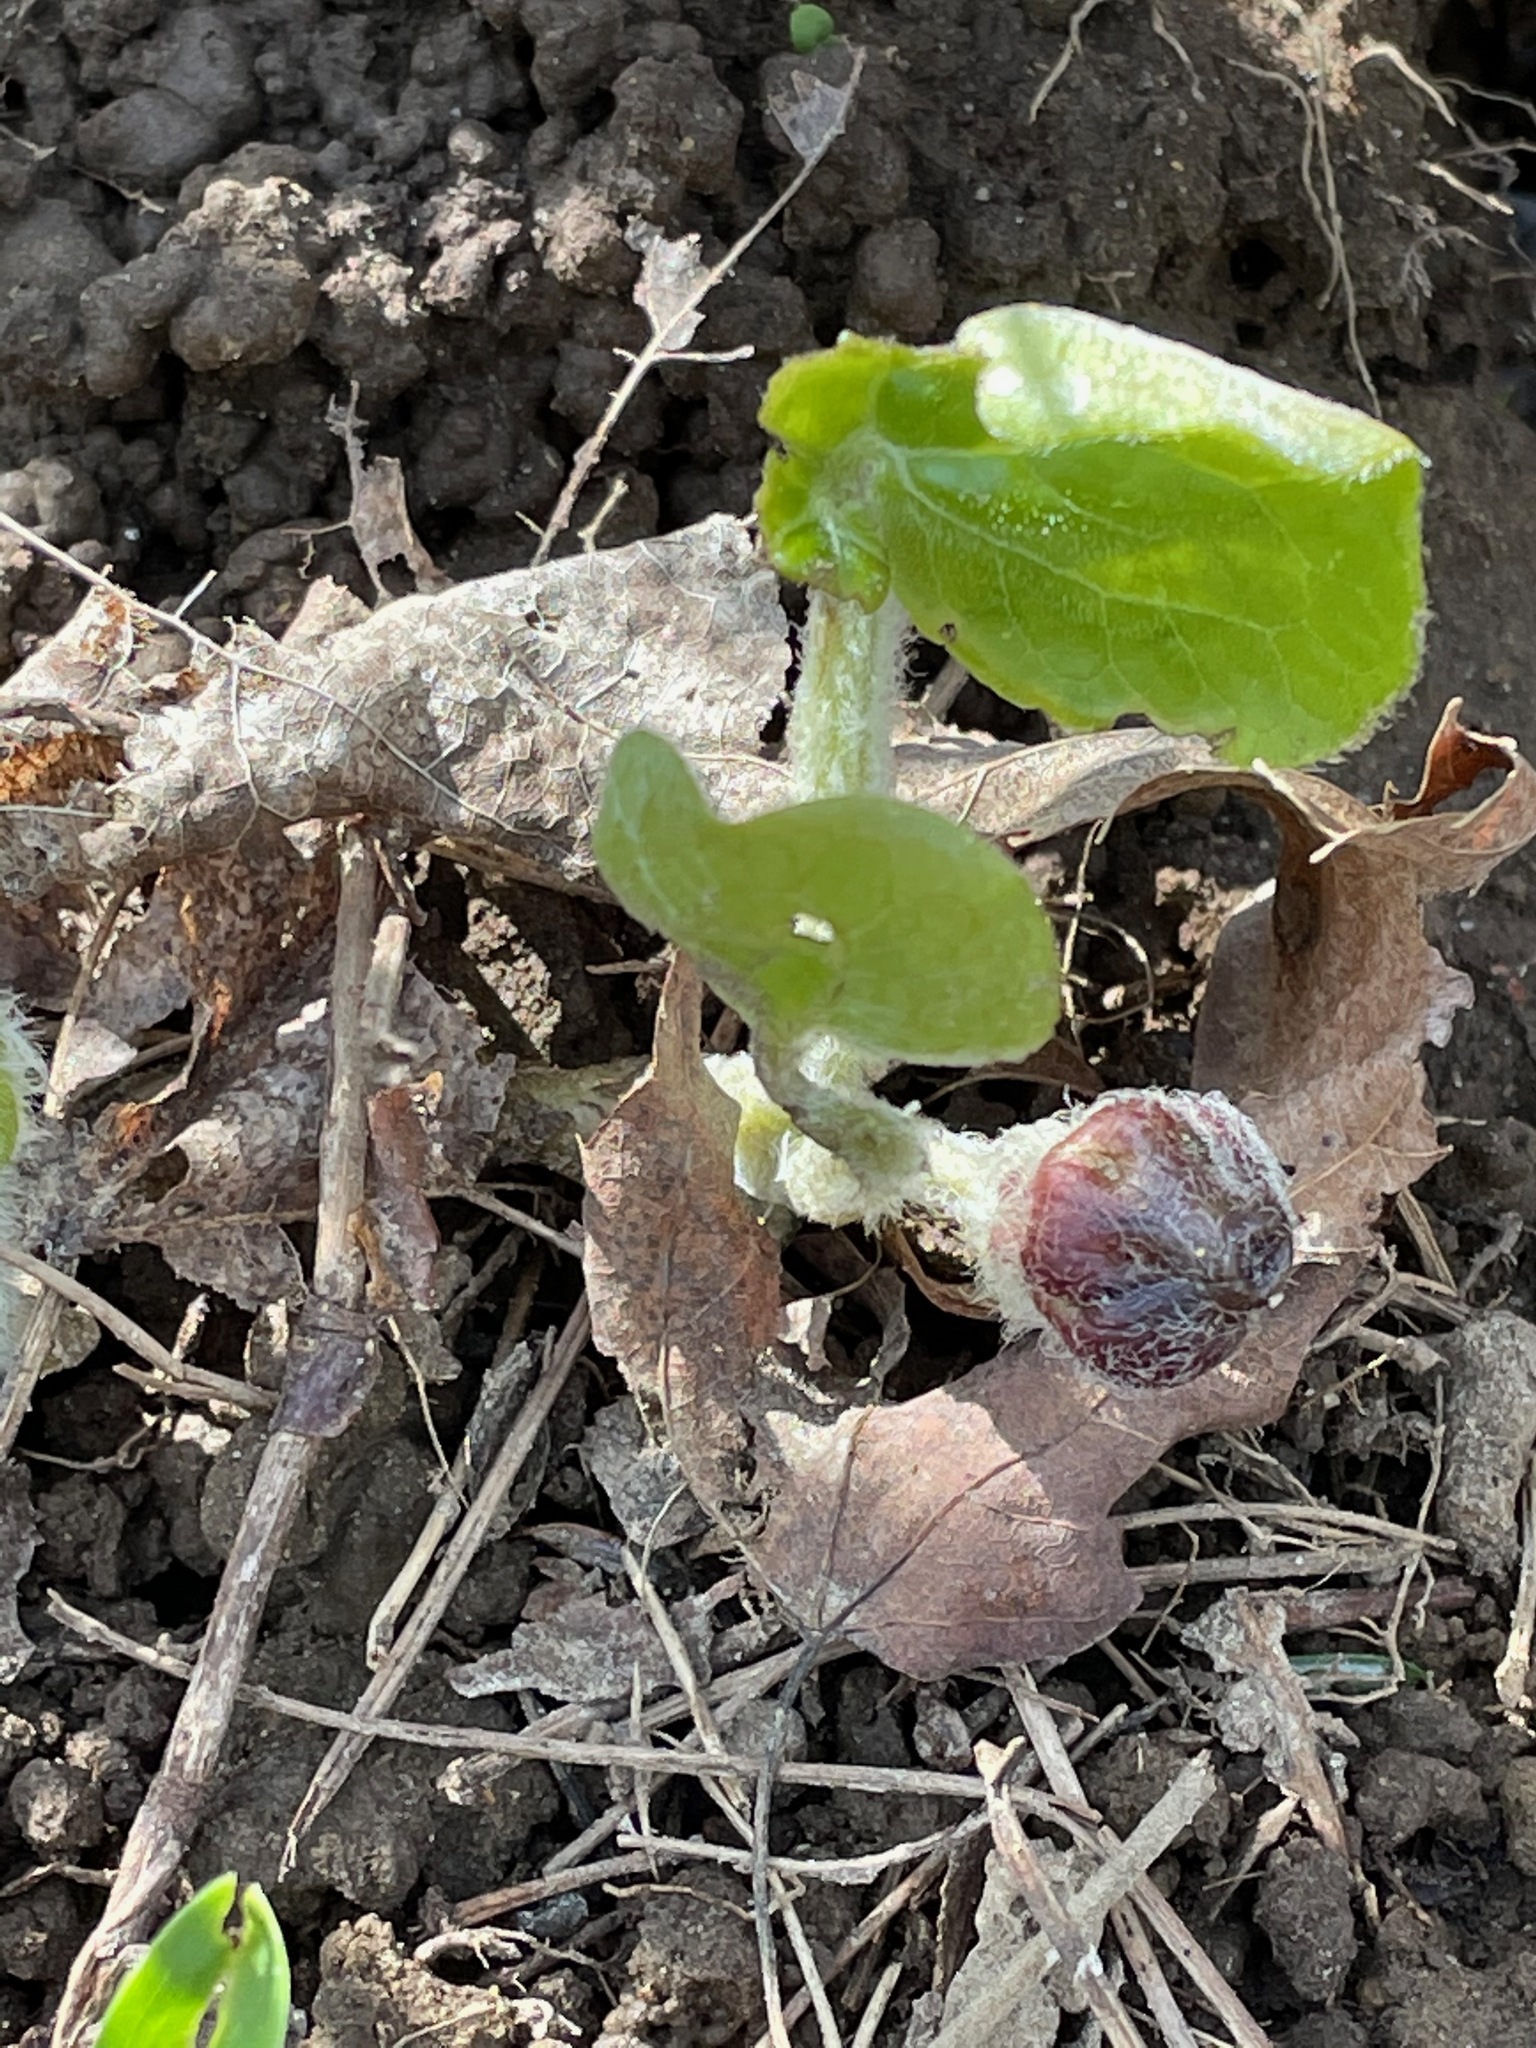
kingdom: Plantae
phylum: Tracheophyta
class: Magnoliopsida
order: Piperales
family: Aristolochiaceae
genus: Asarum
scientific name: Asarum canadense
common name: Wild ginger
